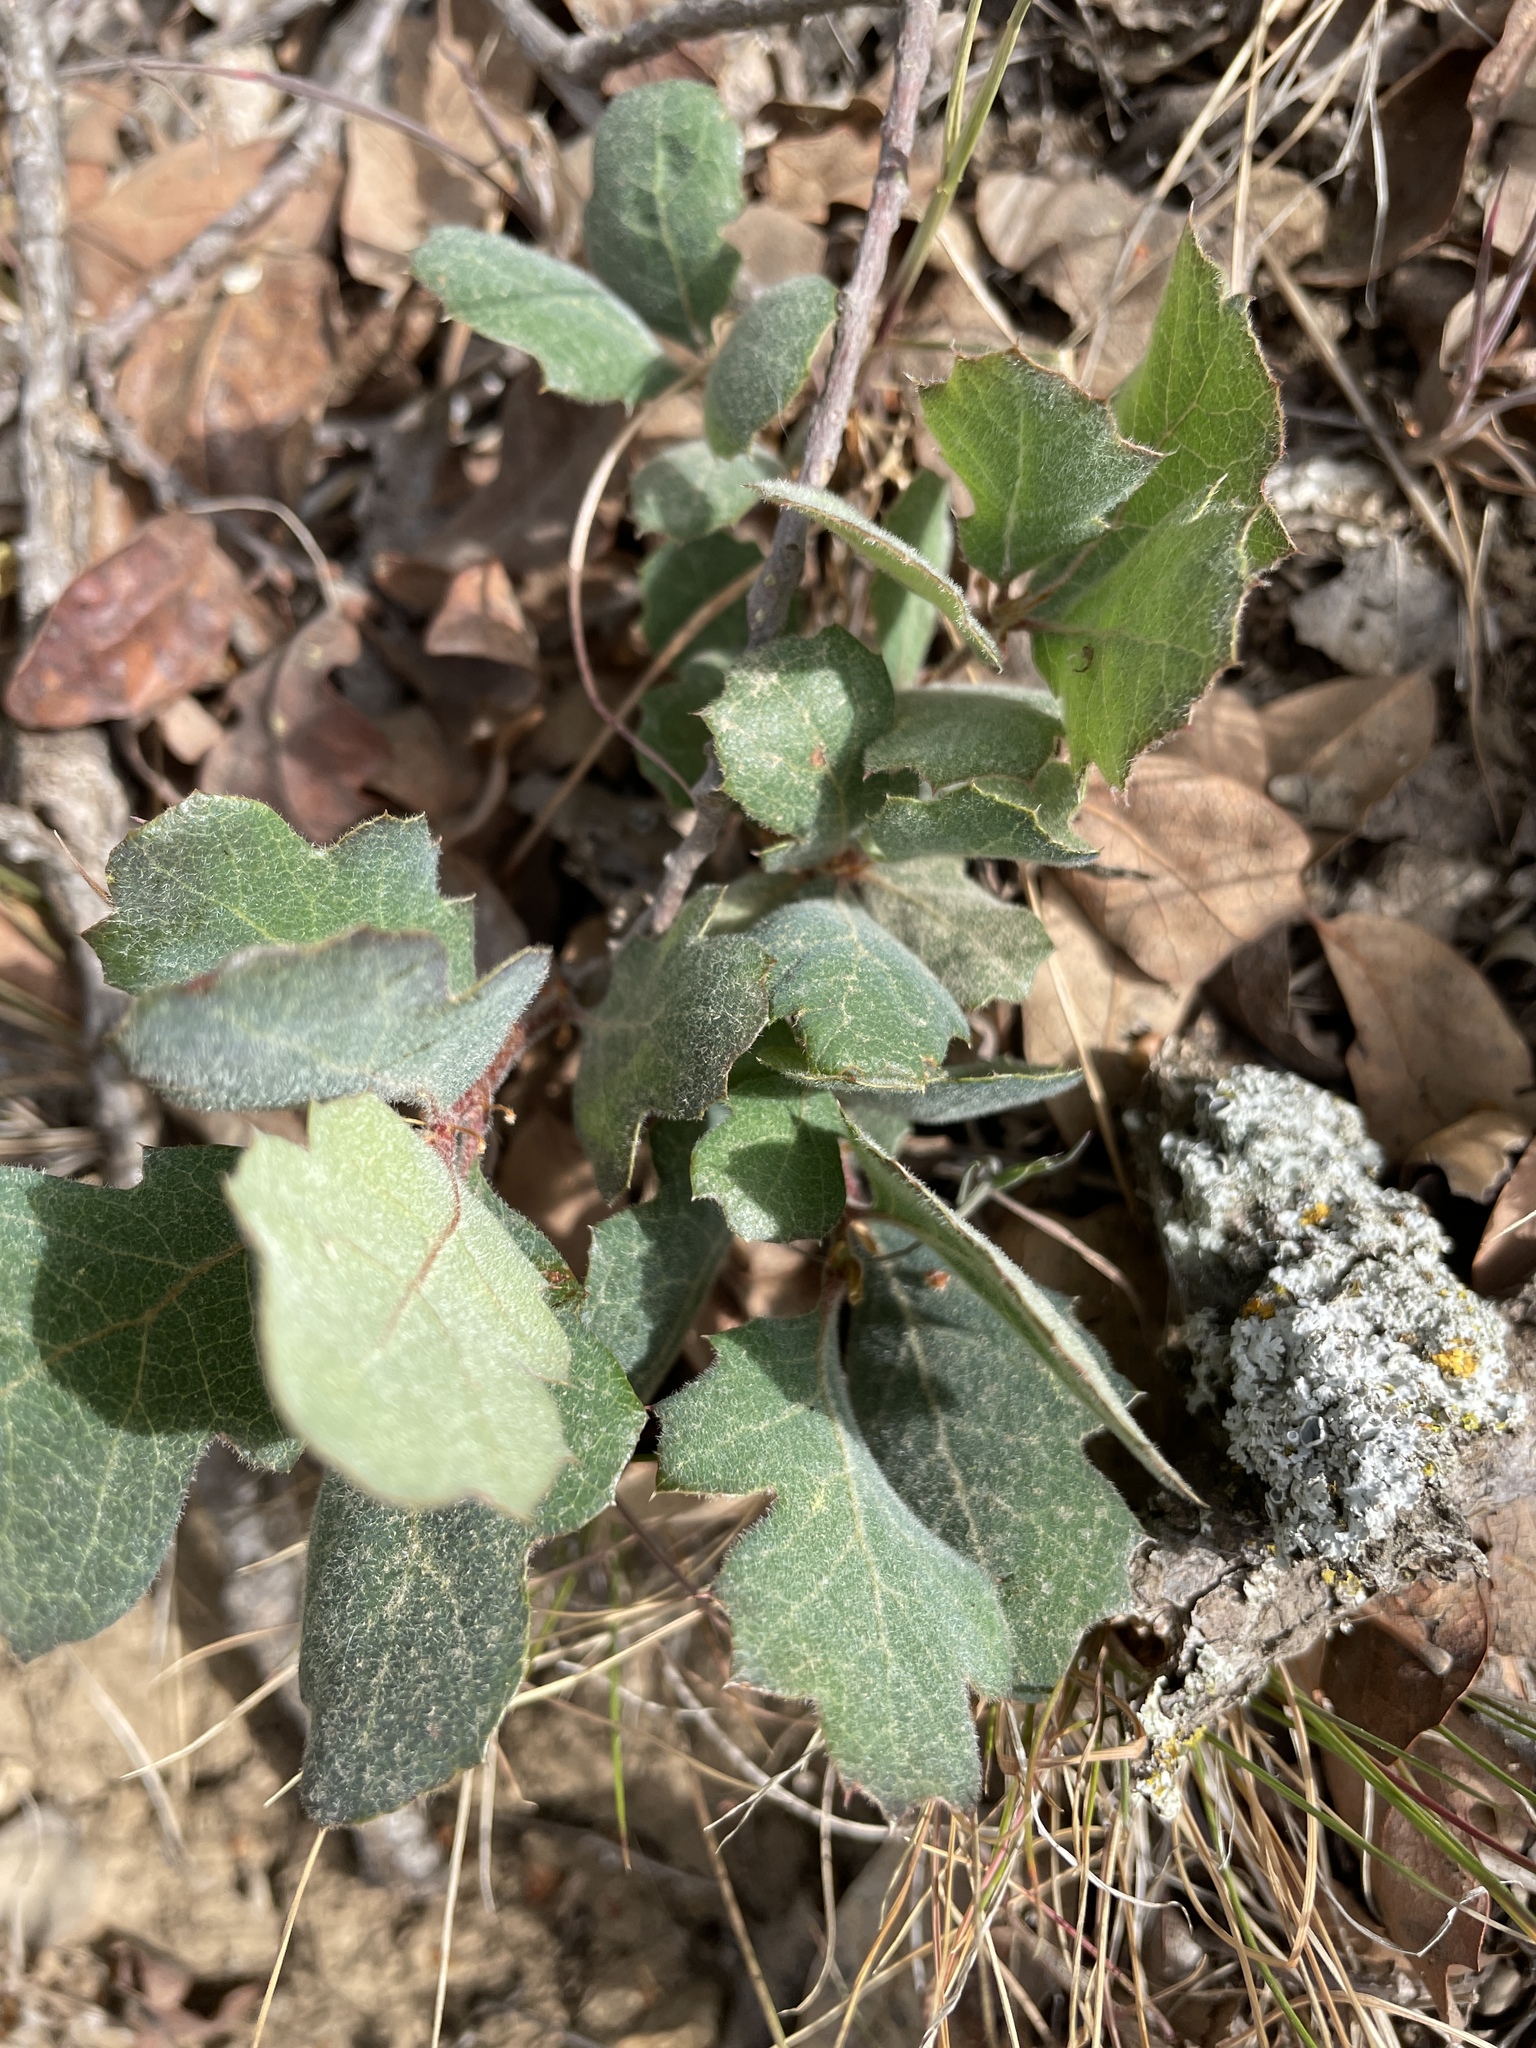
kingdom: Plantae
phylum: Tracheophyta
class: Magnoliopsida
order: Fagales
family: Fagaceae
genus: Quercus
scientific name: Quercus douglasii
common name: Blue oak
